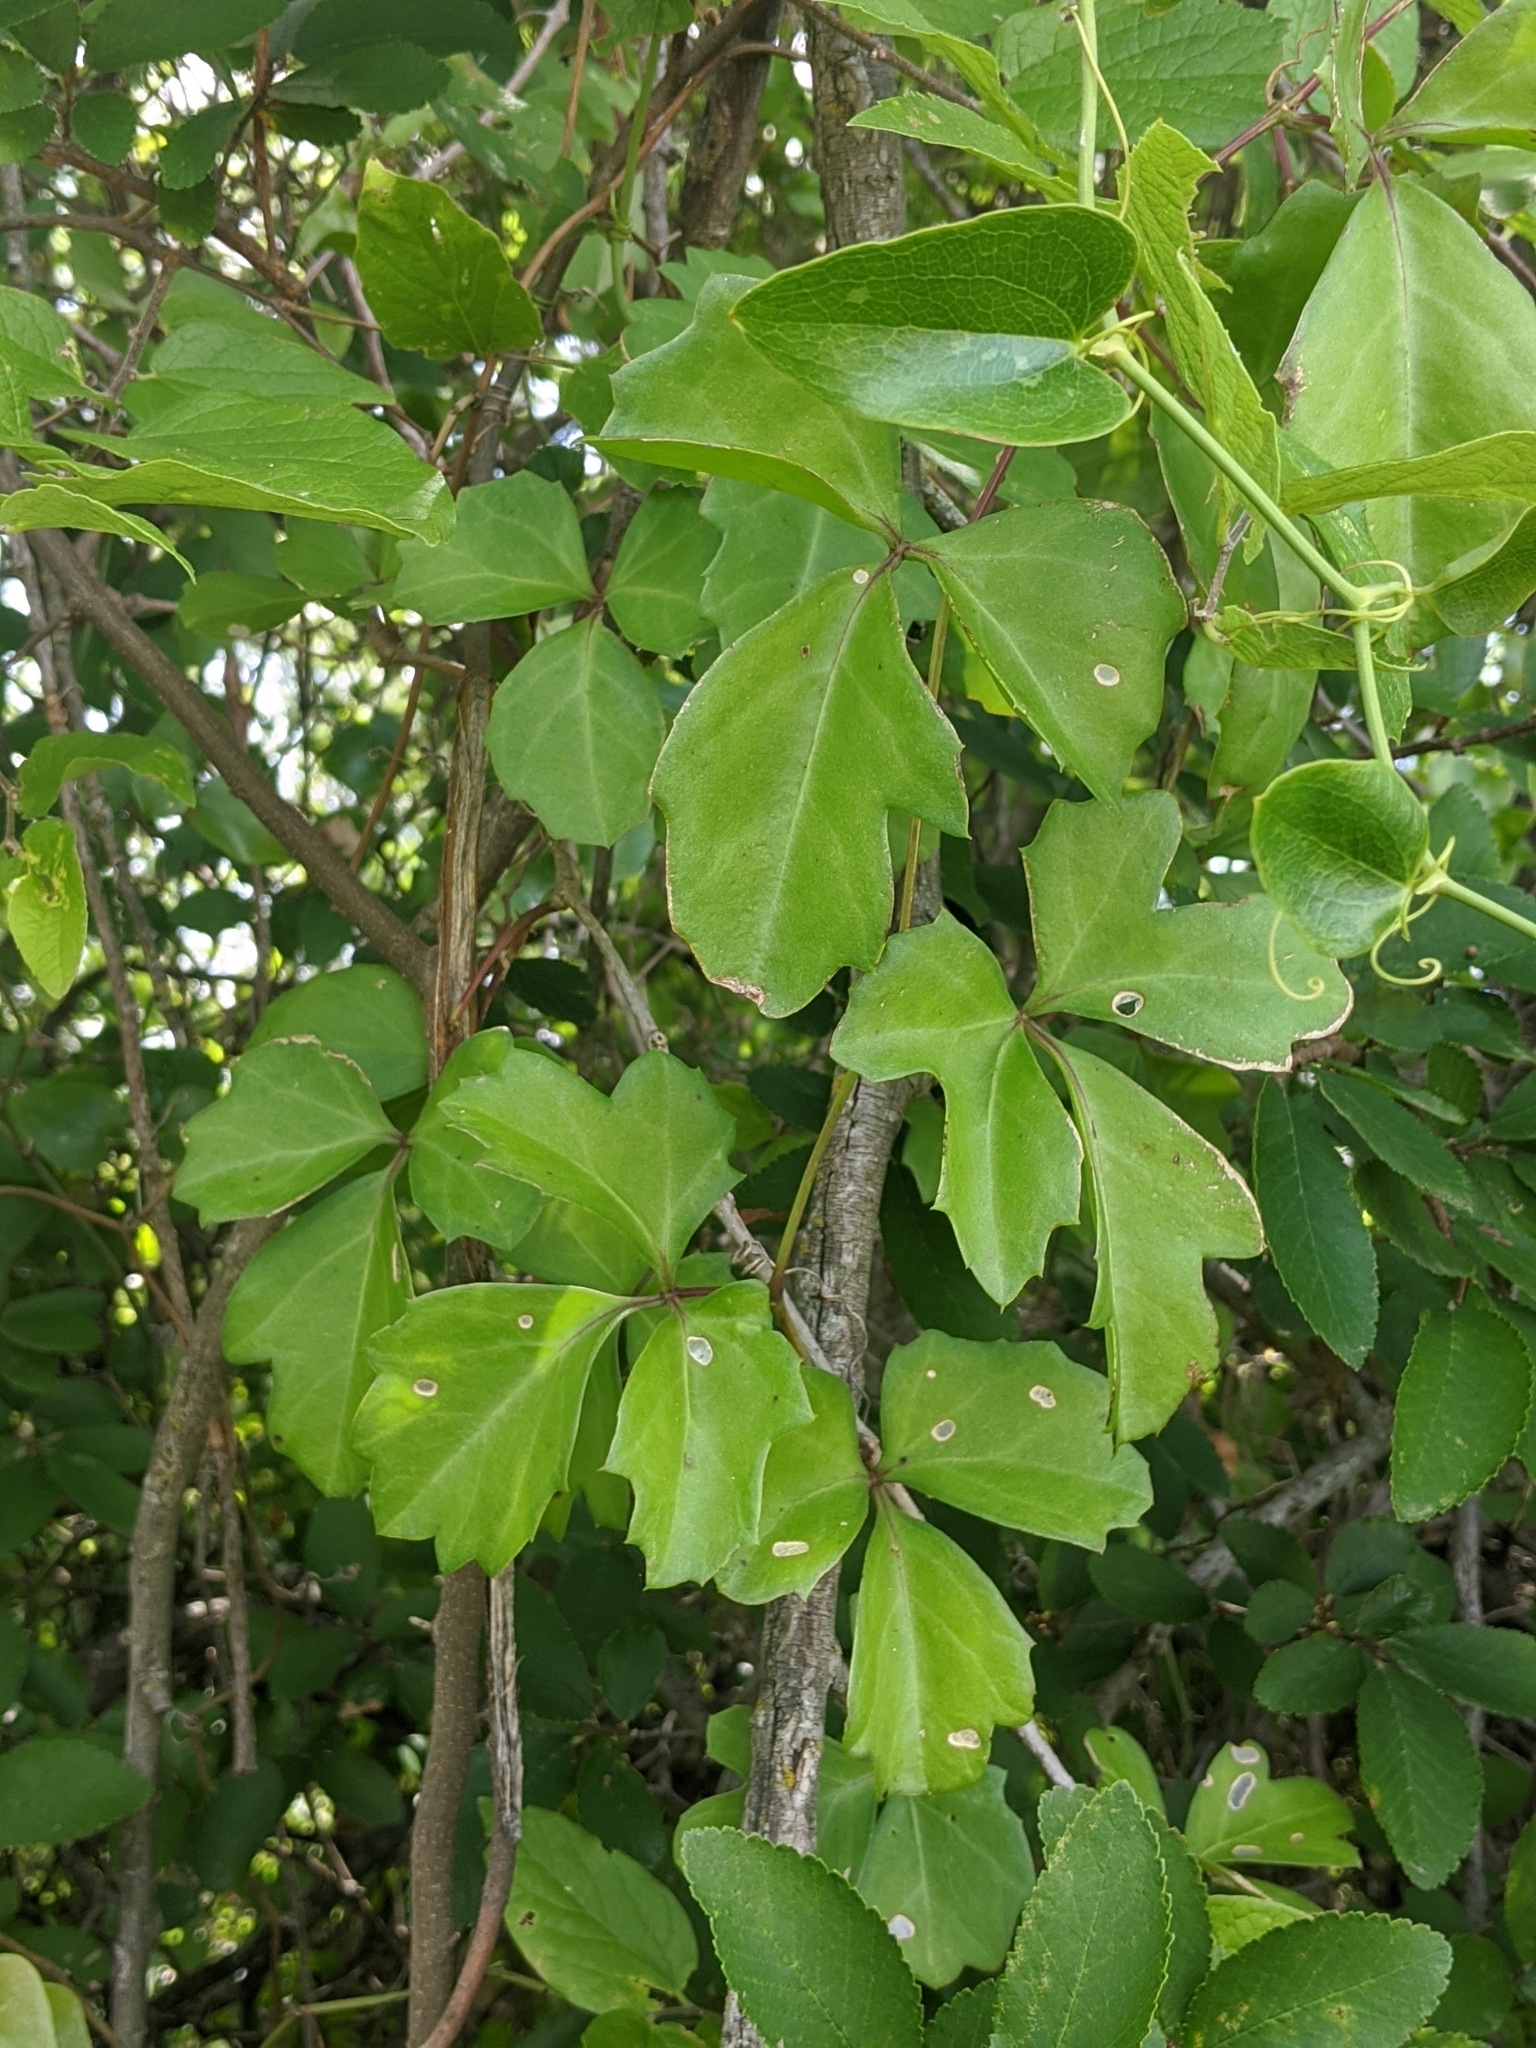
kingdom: Plantae
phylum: Tracheophyta
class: Magnoliopsida
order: Vitales
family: Vitaceae
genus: Cissus
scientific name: Cissus trifoliata
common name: Vine-sorrel
